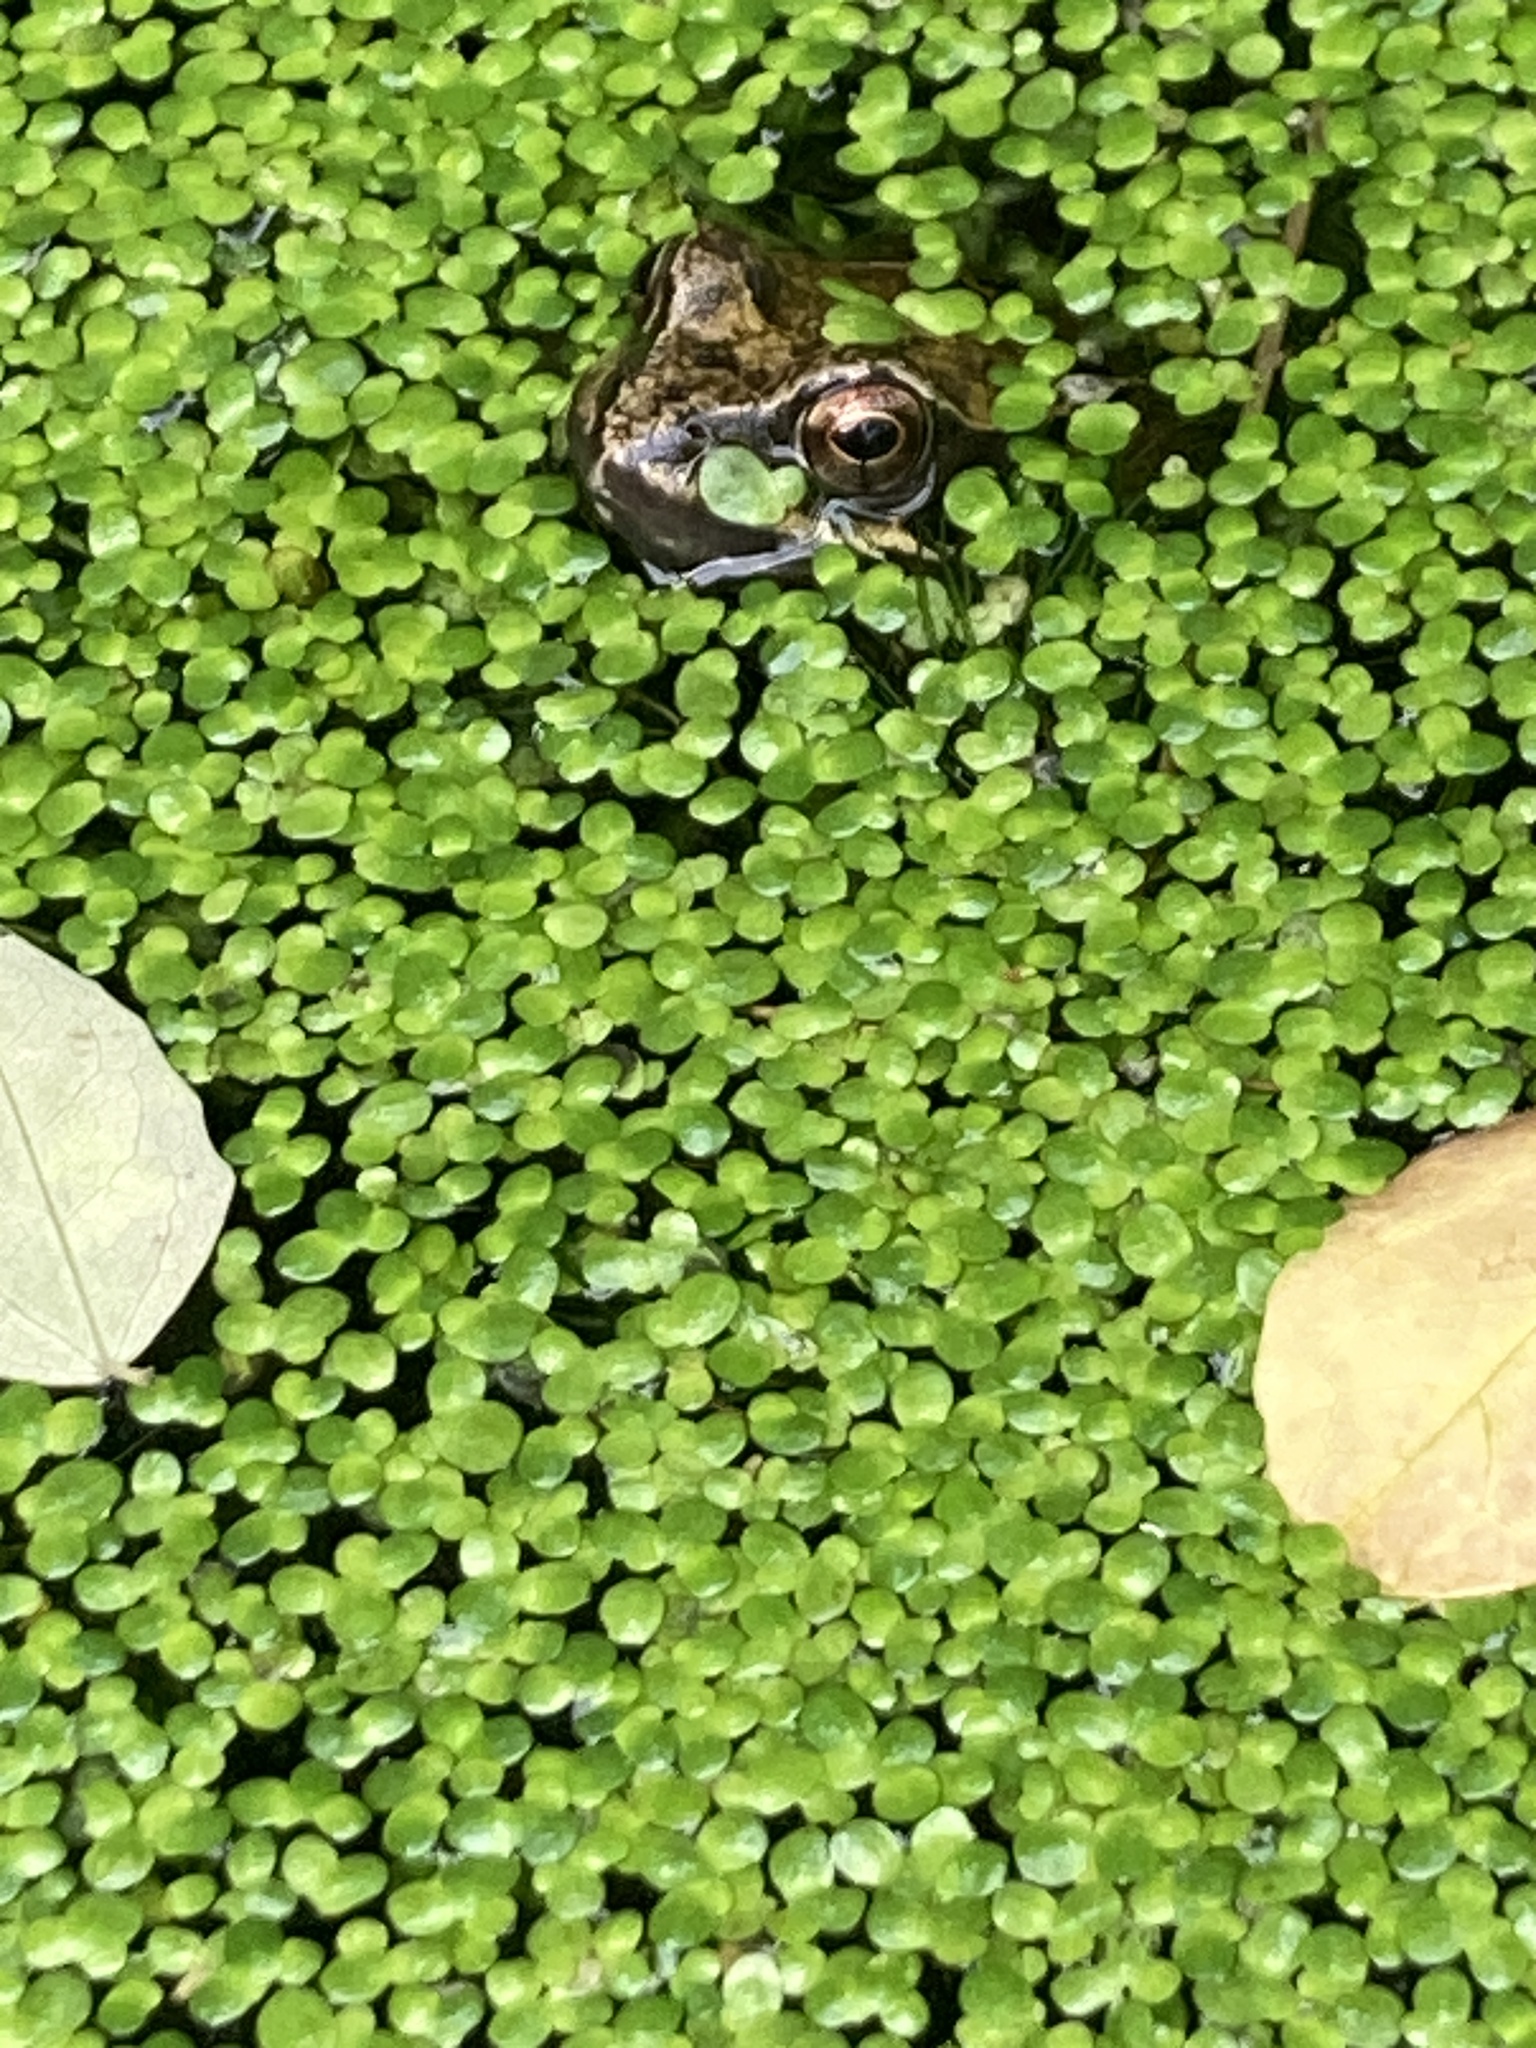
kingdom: Animalia
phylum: Chordata
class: Amphibia
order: Anura
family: Ranidae
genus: Rana
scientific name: Rana temporaria
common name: Common frog
